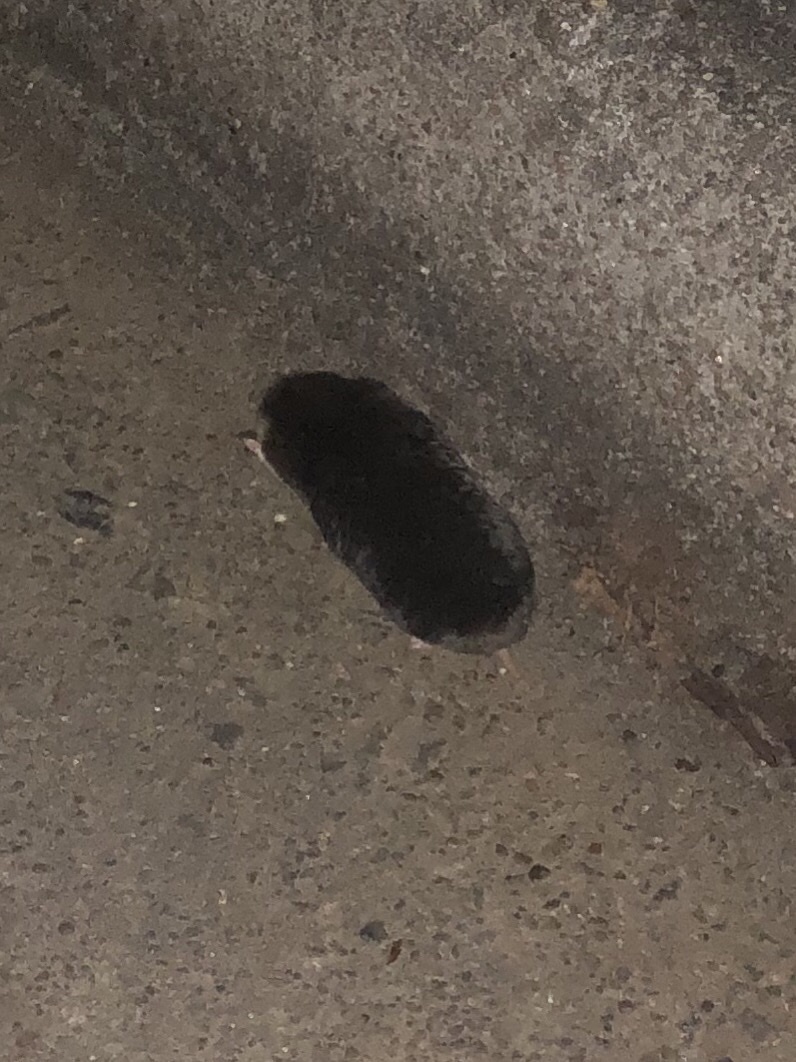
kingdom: Animalia
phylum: Chordata
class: Mammalia
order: Soricomorpha
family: Talpidae
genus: Scalopus
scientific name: Scalopus aquaticus
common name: Eastern mole
